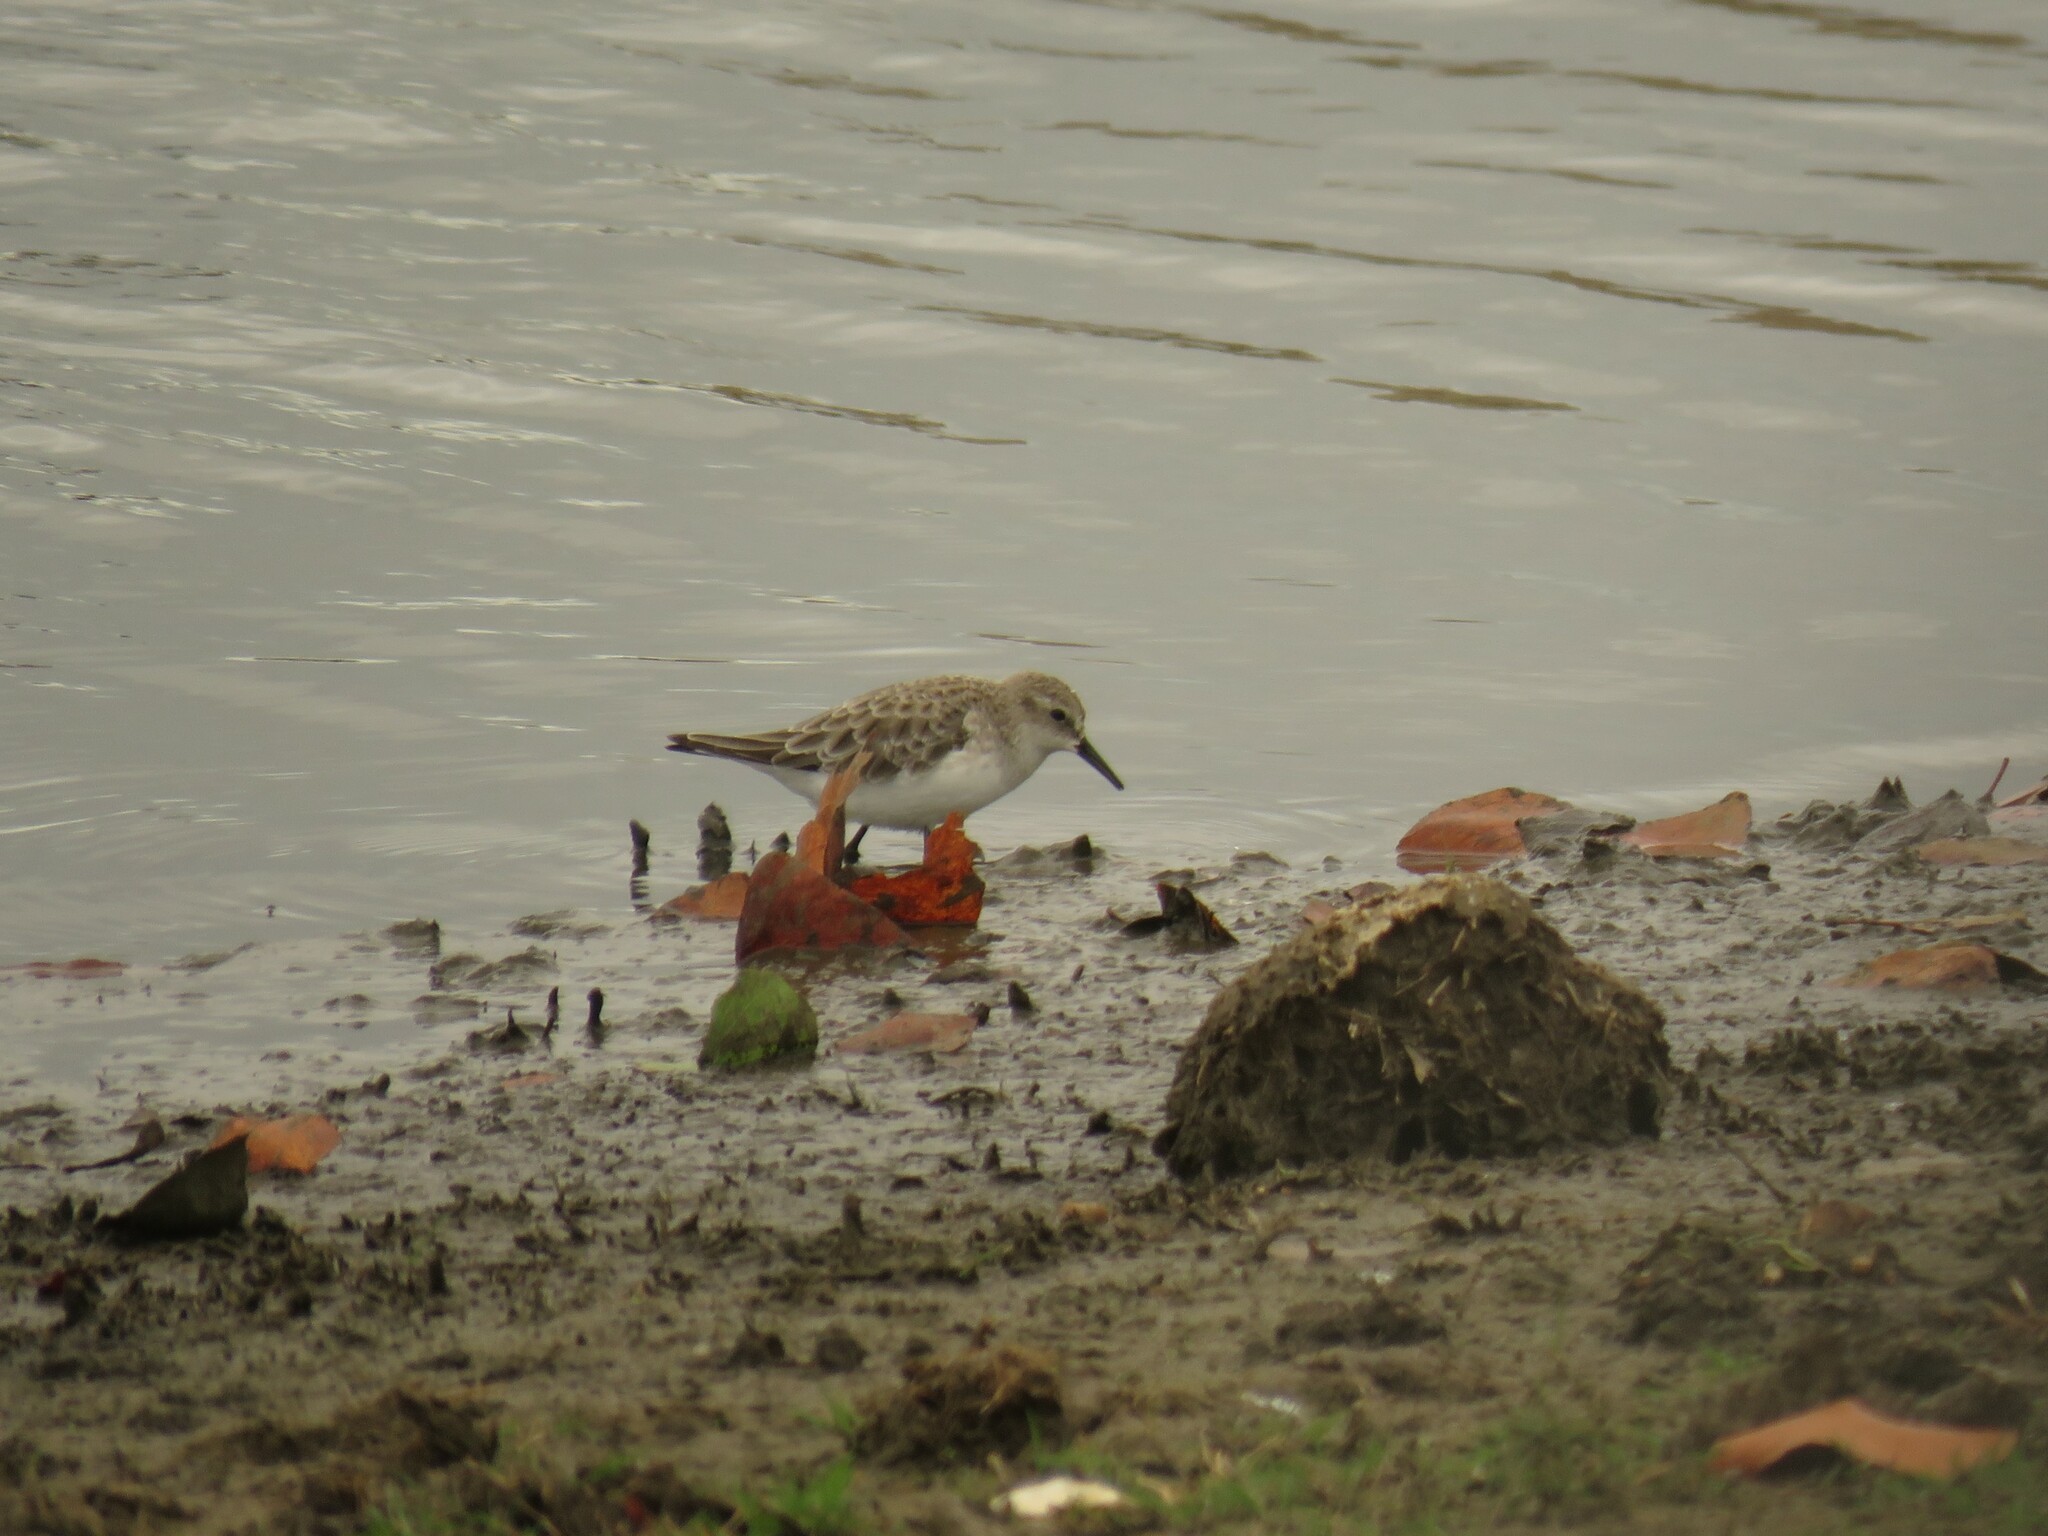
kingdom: Animalia
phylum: Chordata
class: Aves
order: Charadriiformes
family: Scolopacidae
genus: Calidris
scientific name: Calidris minuta
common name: Little stint
